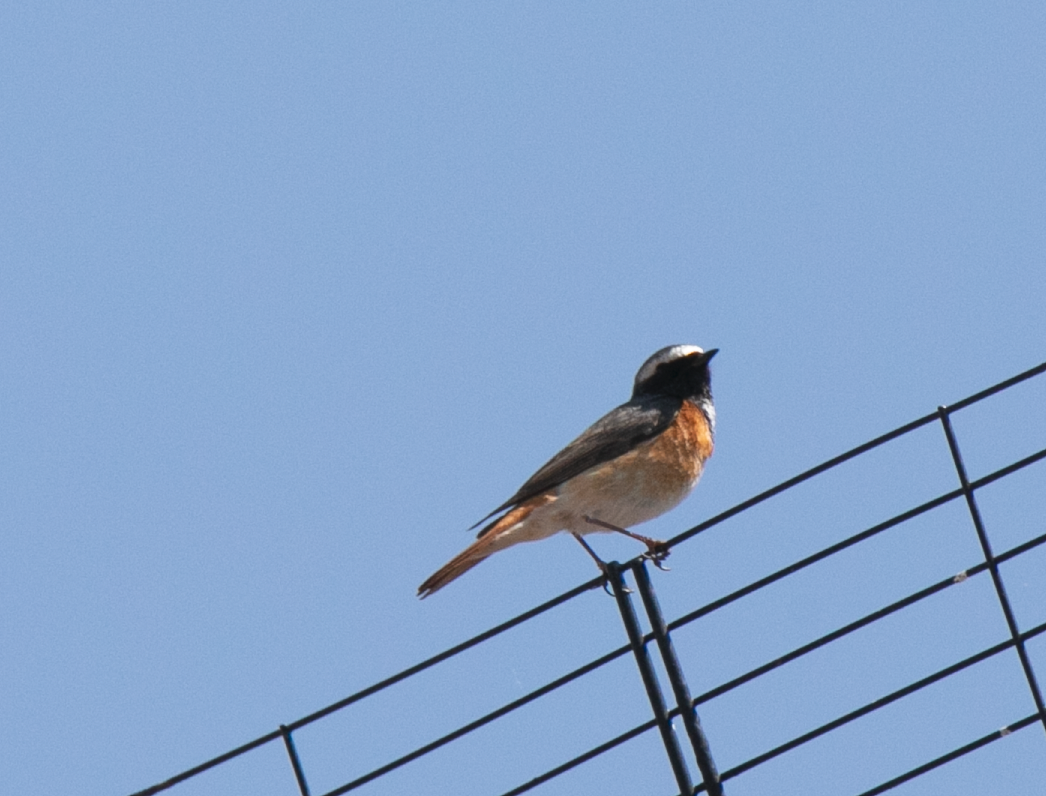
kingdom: Animalia
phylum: Chordata
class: Aves
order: Passeriformes
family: Muscicapidae
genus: Phoenicurus
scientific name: Phoenicurus phoenicurus
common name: Common redstart
